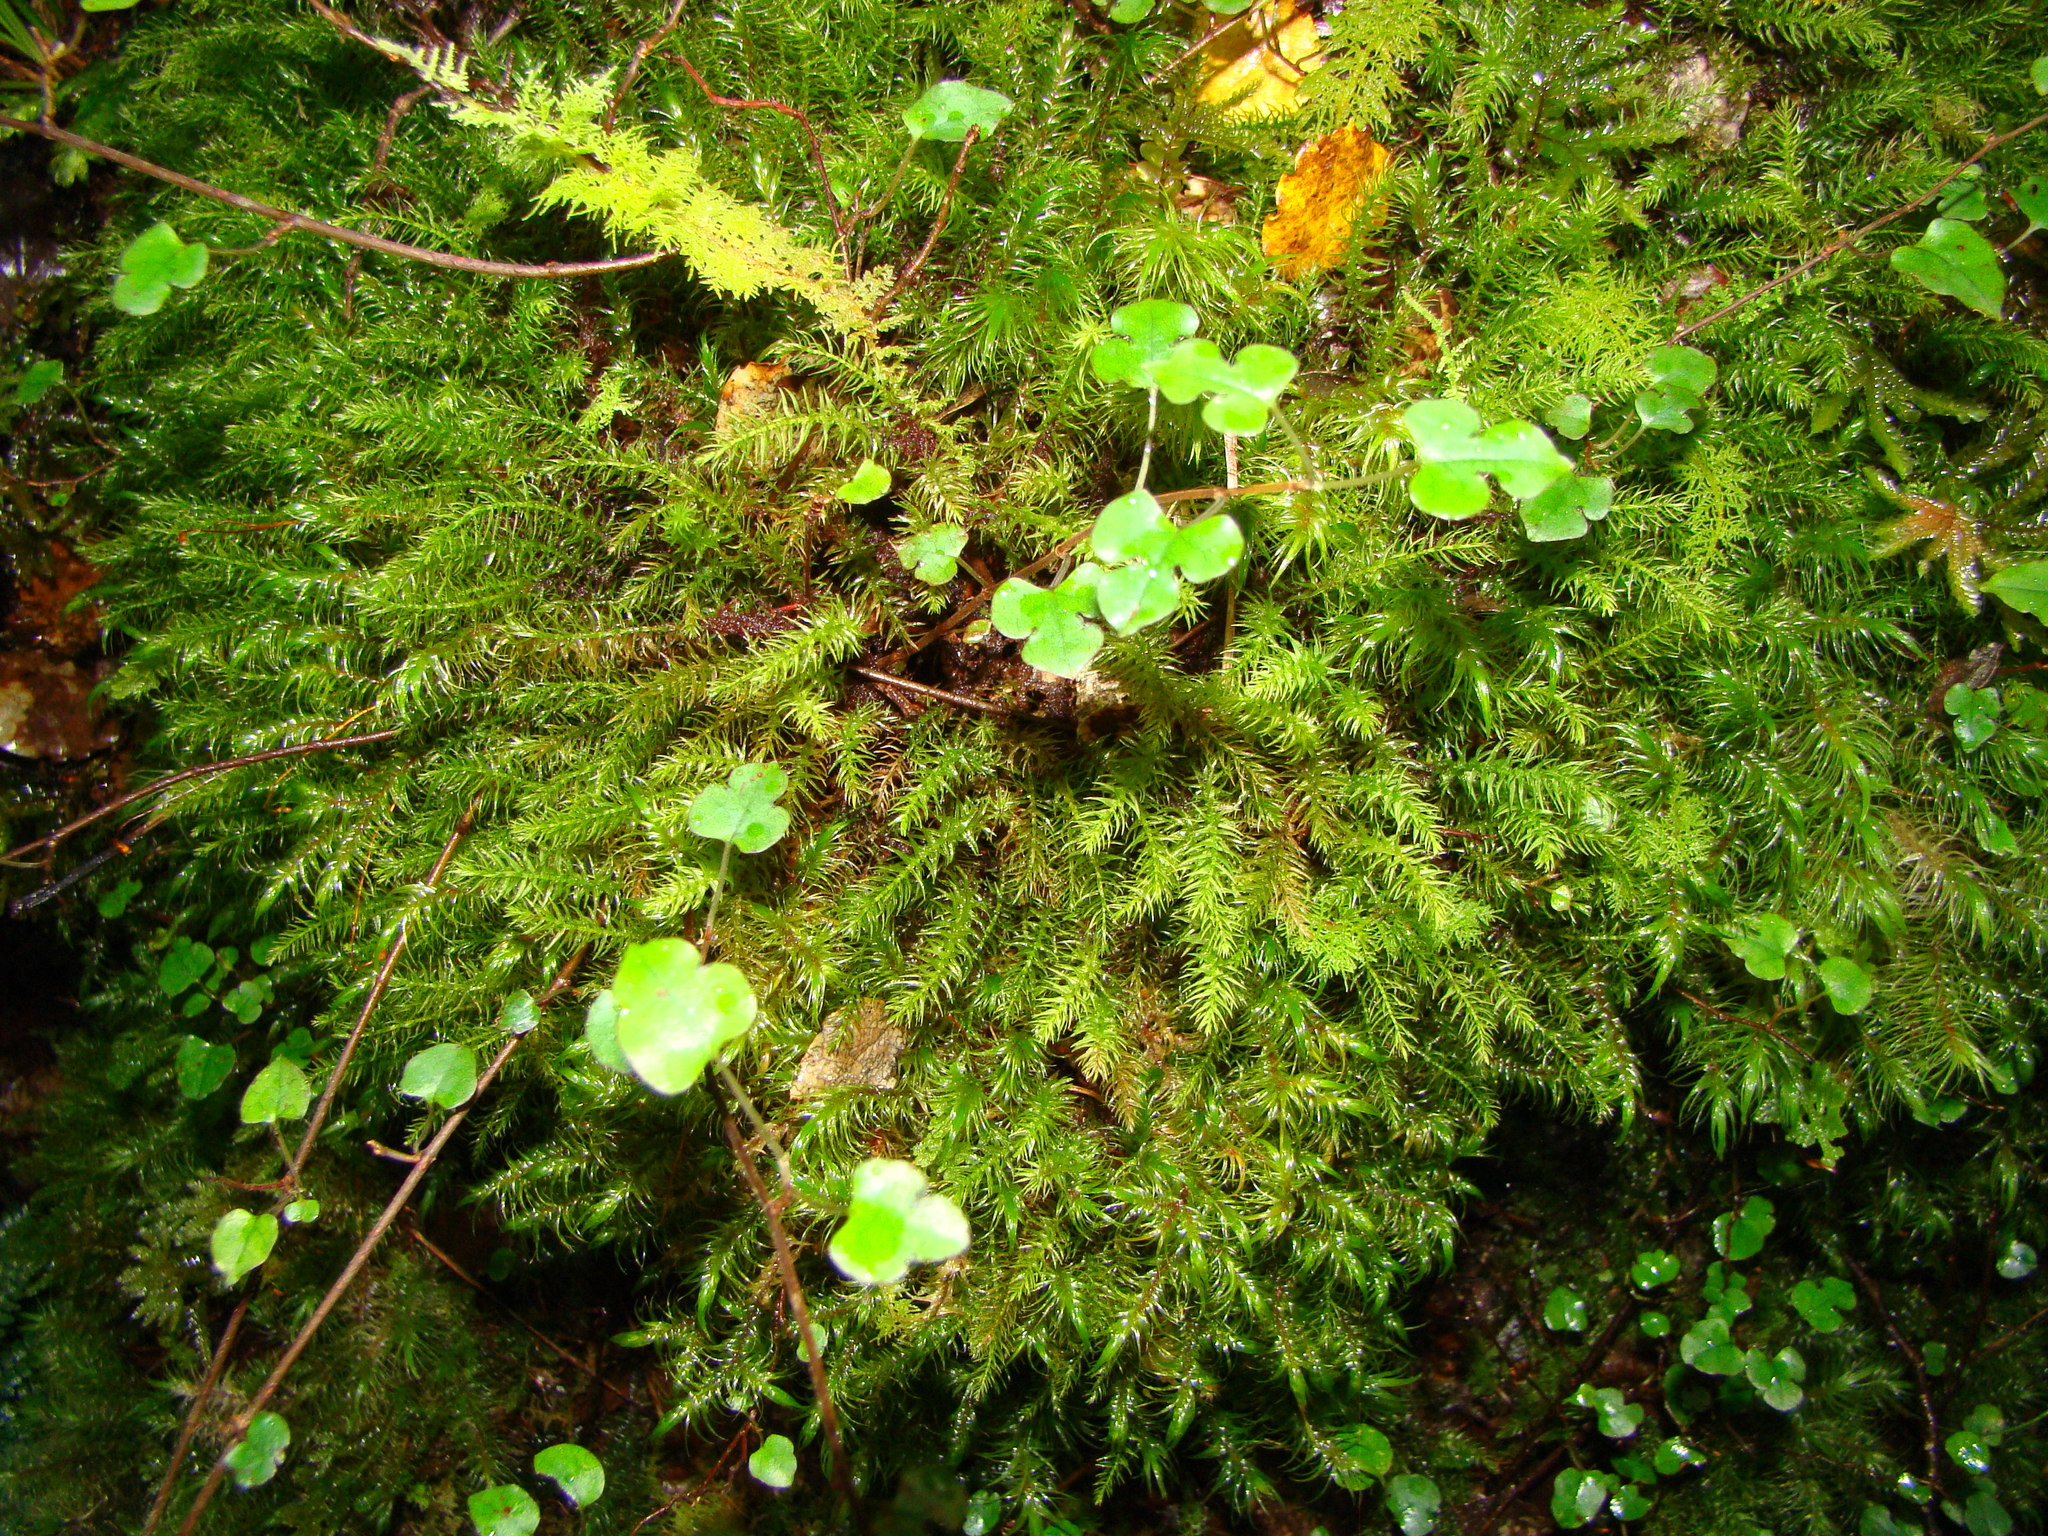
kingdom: Plantae
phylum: Tracheophyta
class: Magnoliopsida
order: Caryophyllales
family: Polygonaceae
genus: Muehlenbeckia
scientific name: Muehlenbeckia australis
